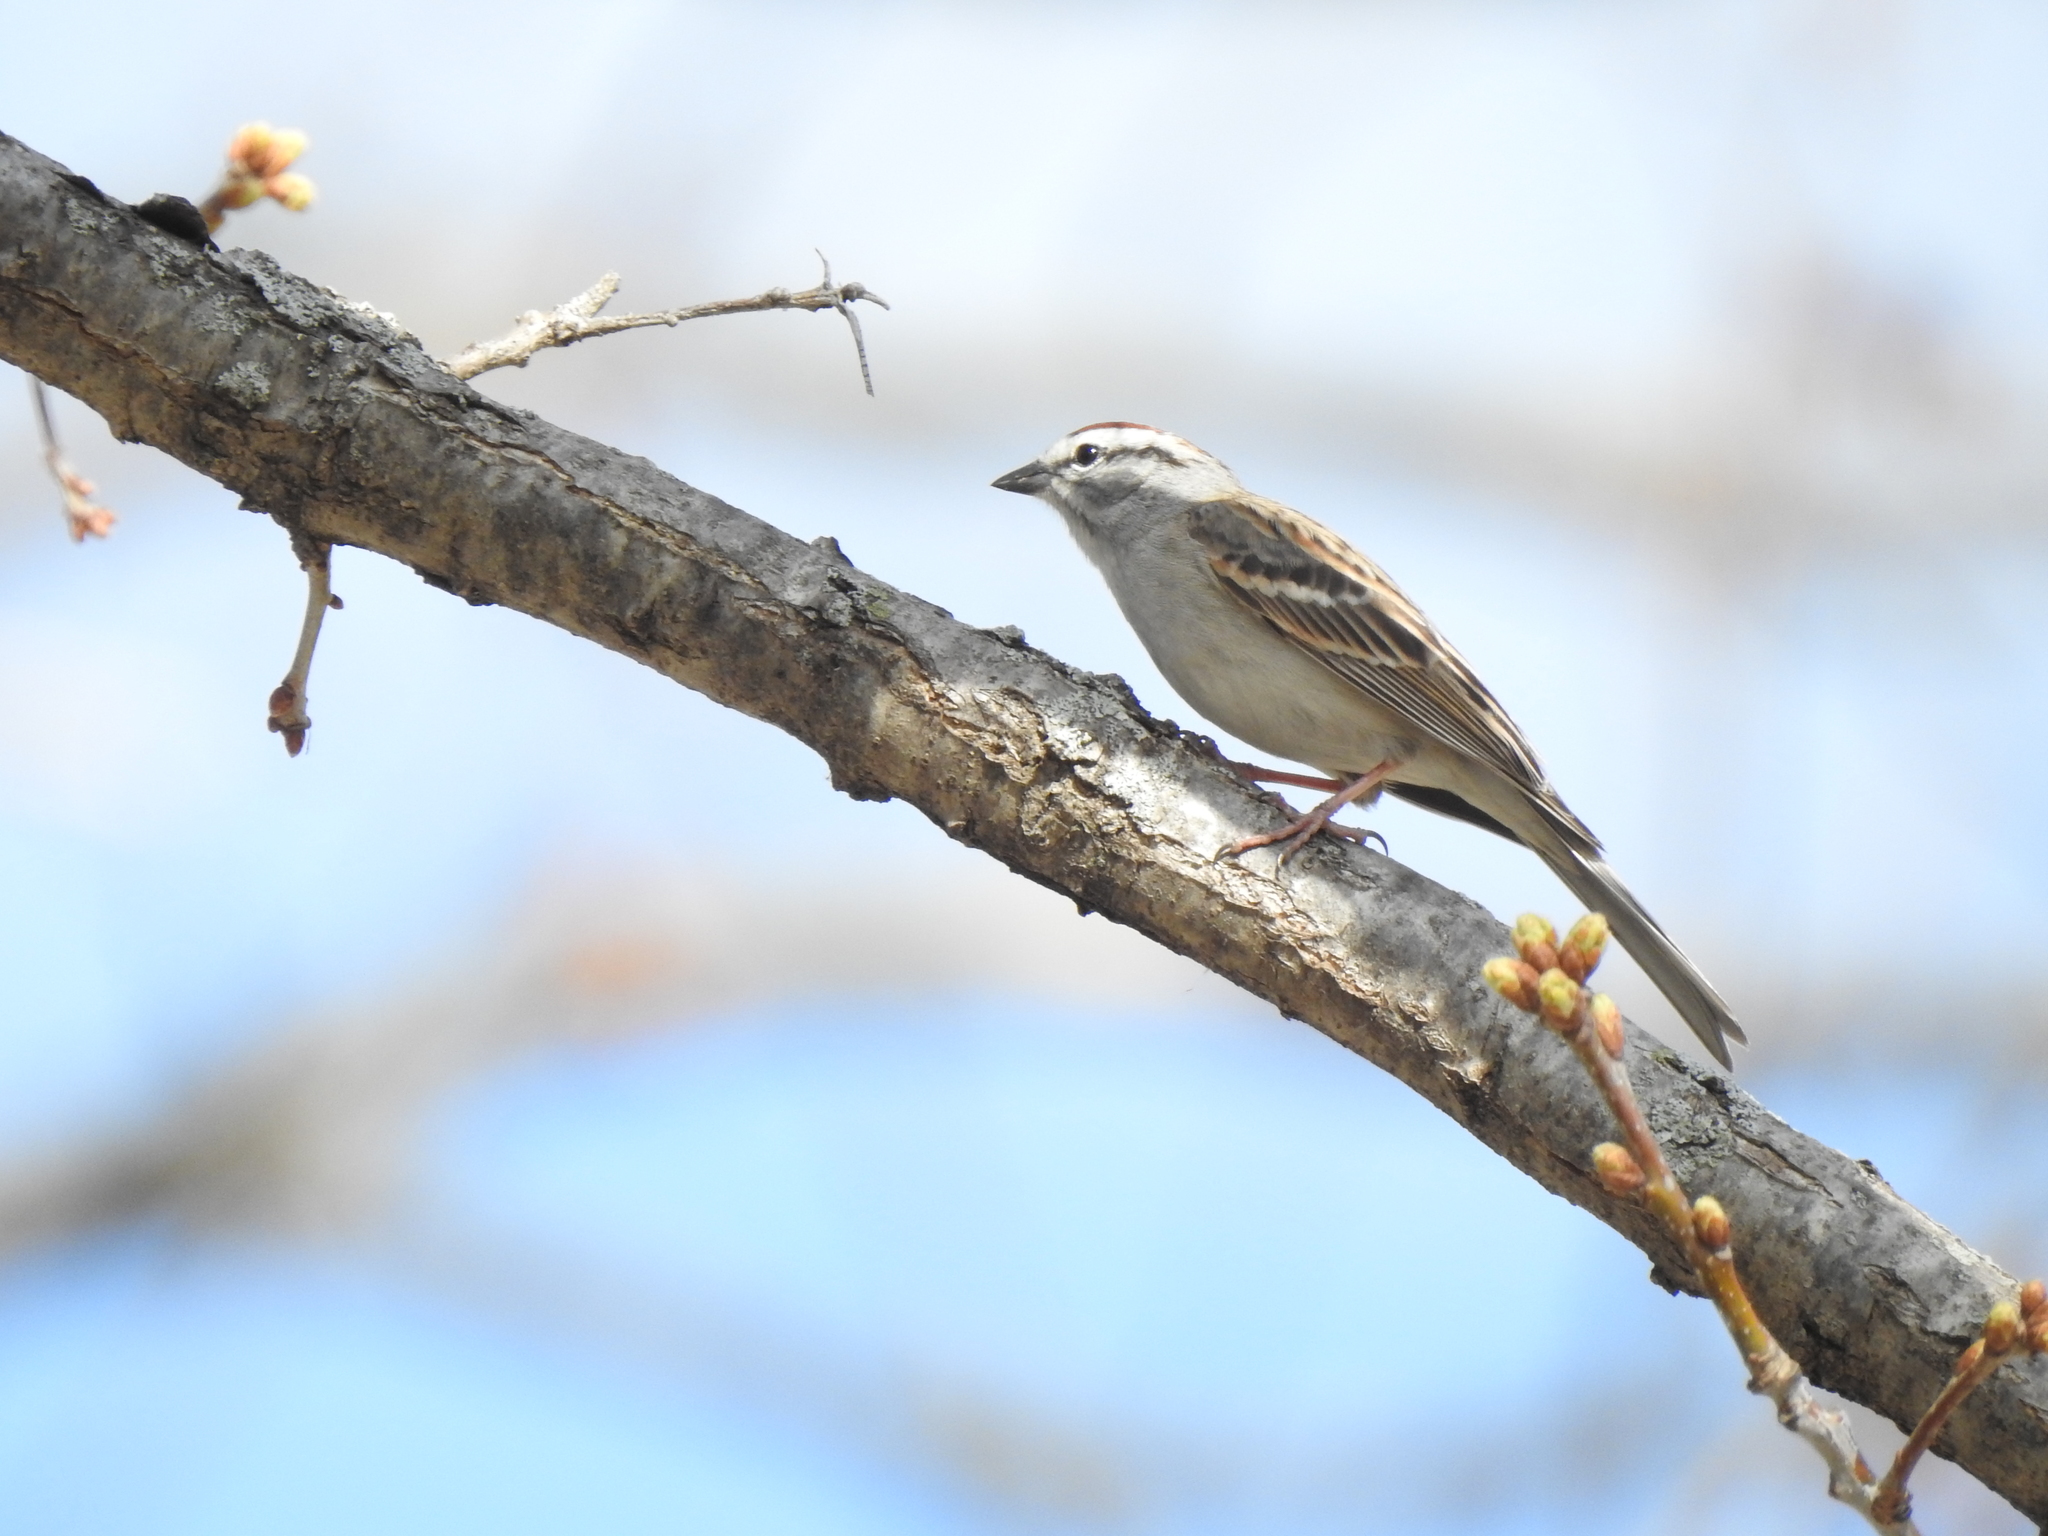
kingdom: Animalia
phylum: Chordata
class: Aves
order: Passeriformes
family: Passerellidae
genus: Spizella
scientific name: Spizella passerina
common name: Chipping sparrow
